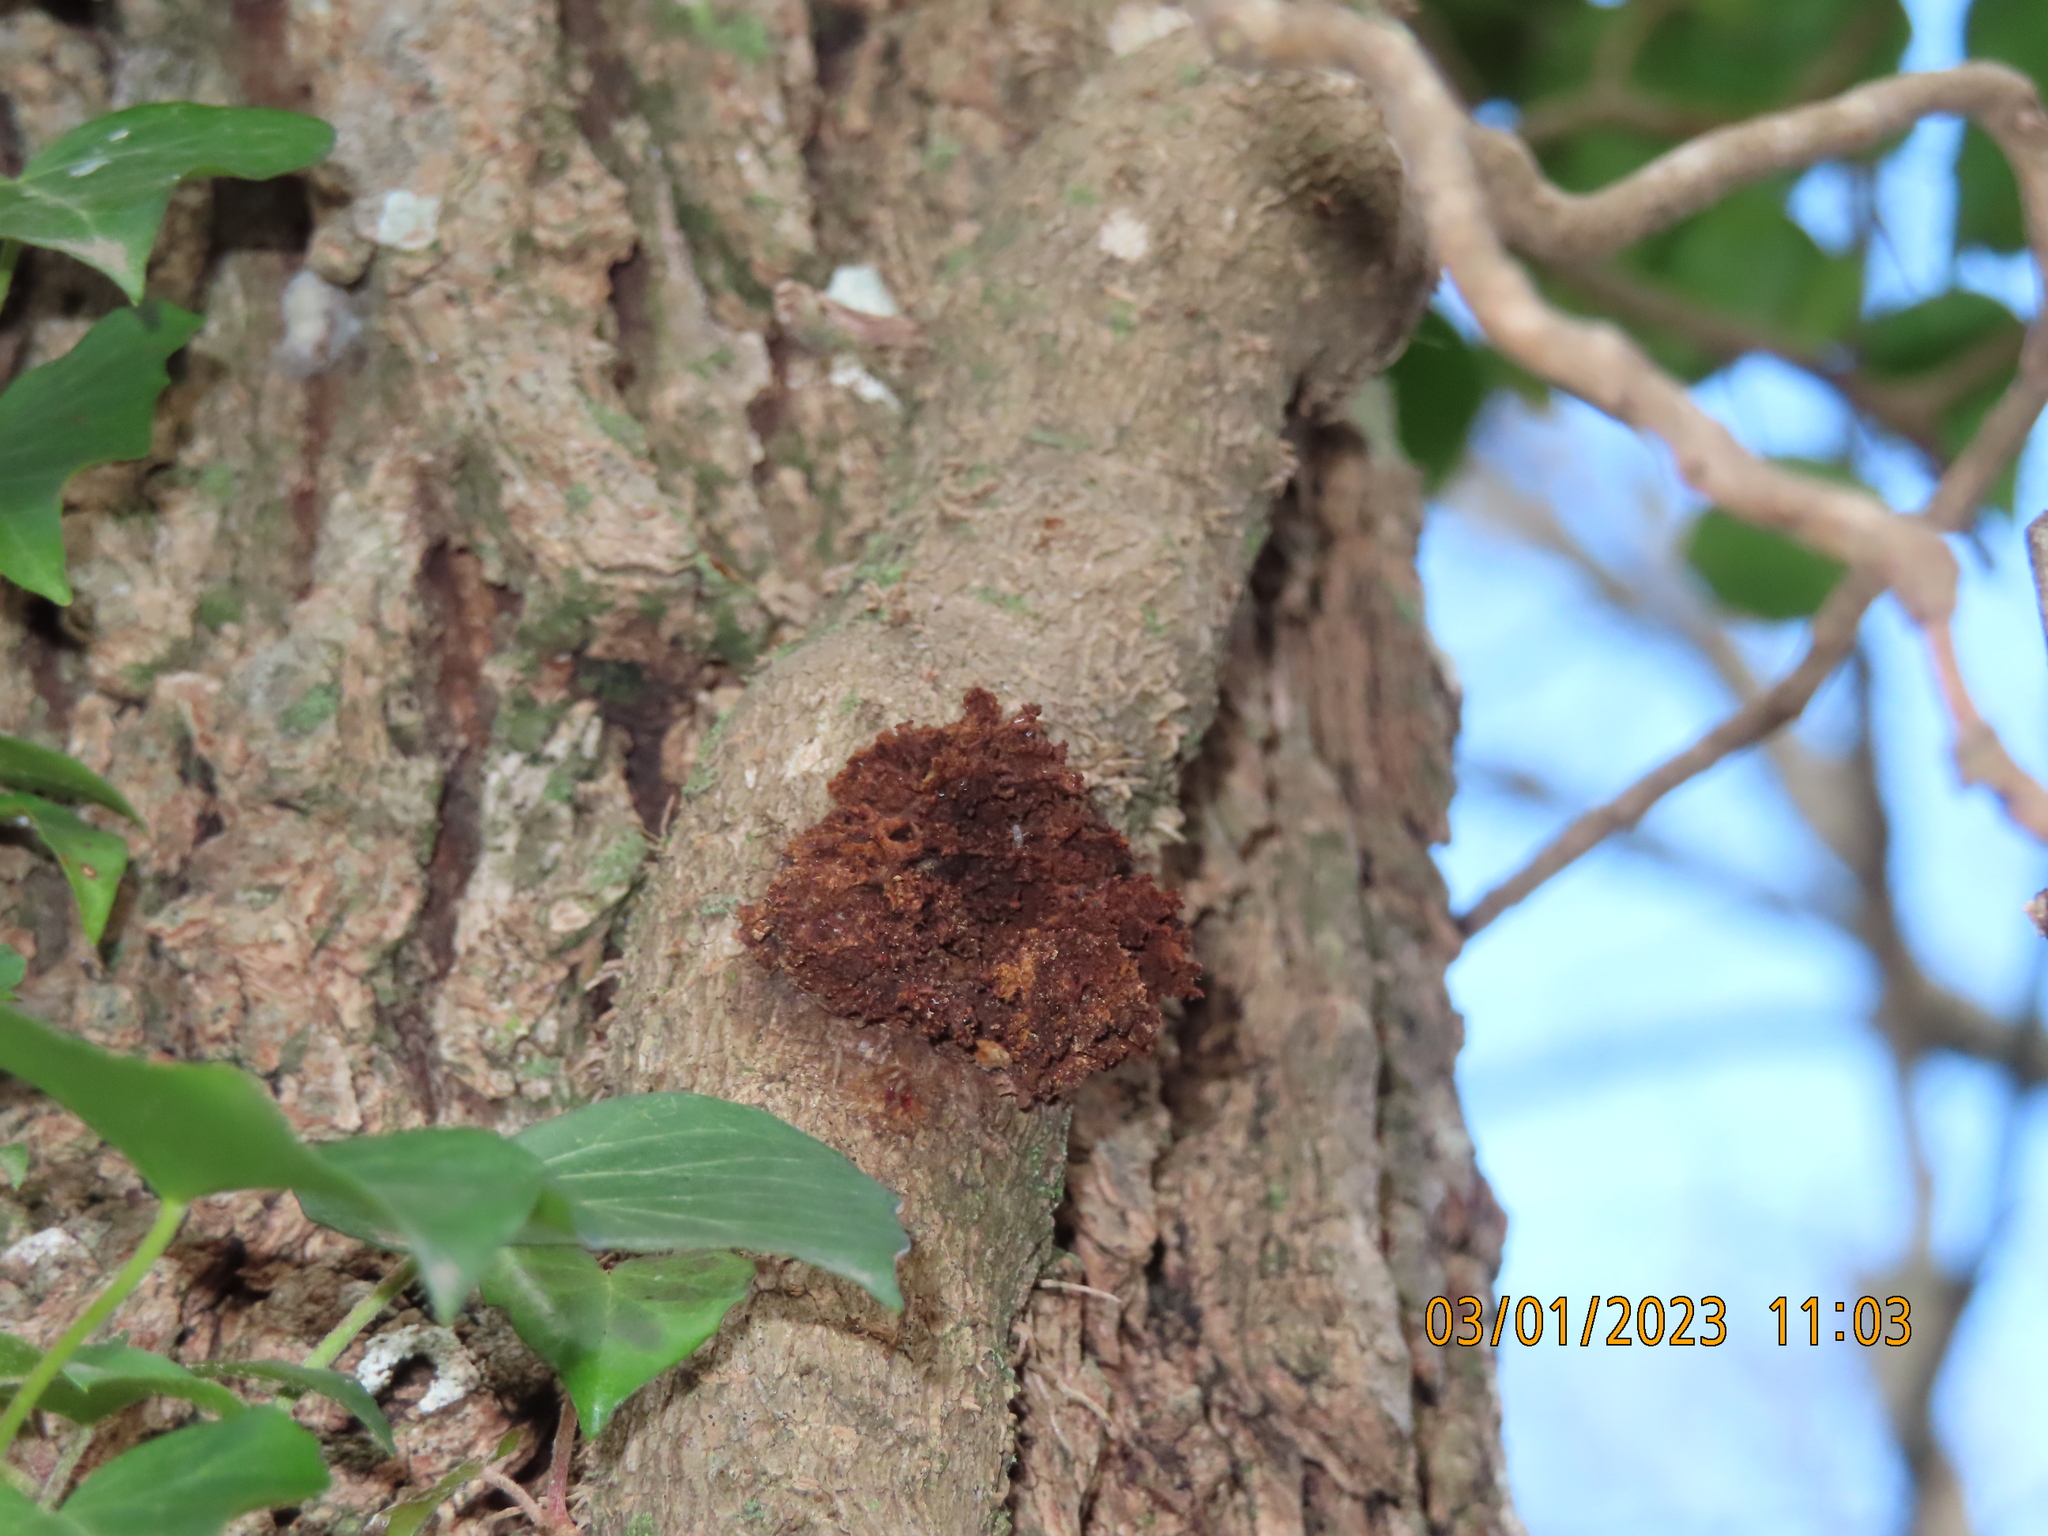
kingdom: Bacteria
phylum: Proteobacteria
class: Alphaproteobacteria
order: Rhizobiales
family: Rhizobiaceae
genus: Rhizobium
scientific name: Rhizobium Agrobacterium radiobacter
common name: Bacterial crown gall
